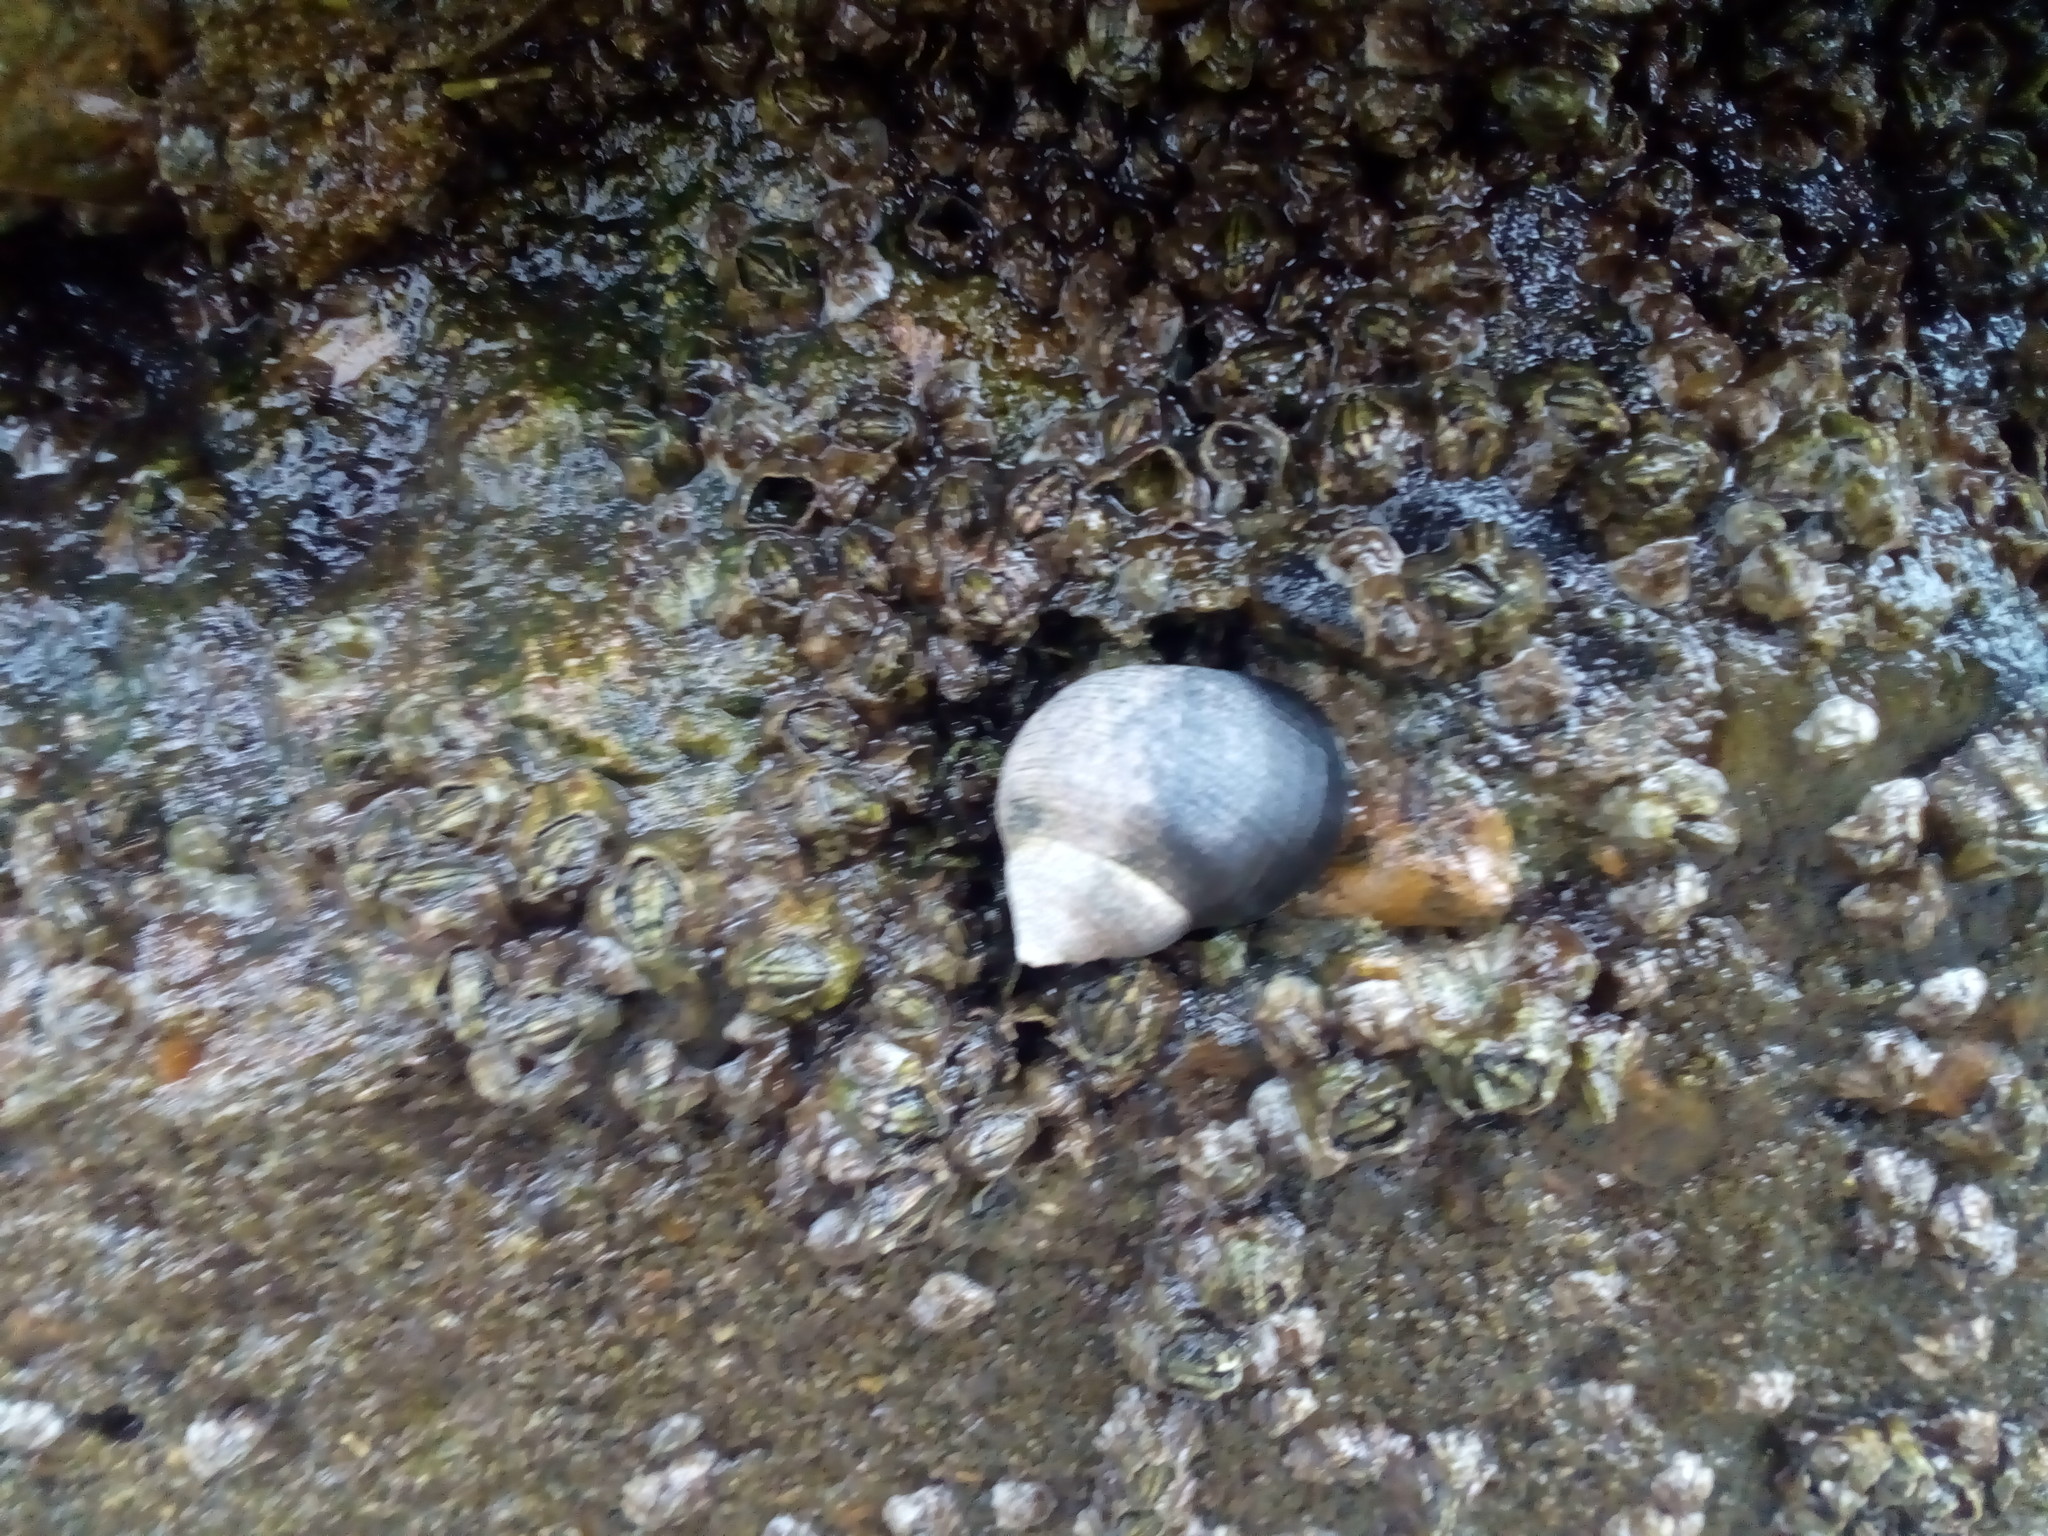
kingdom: Animalia
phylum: Mollusca
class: Gastropoda
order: Littorinimorpha
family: Littorinidae
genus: Littorina
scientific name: Littorina littorea
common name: Common periwinkle
